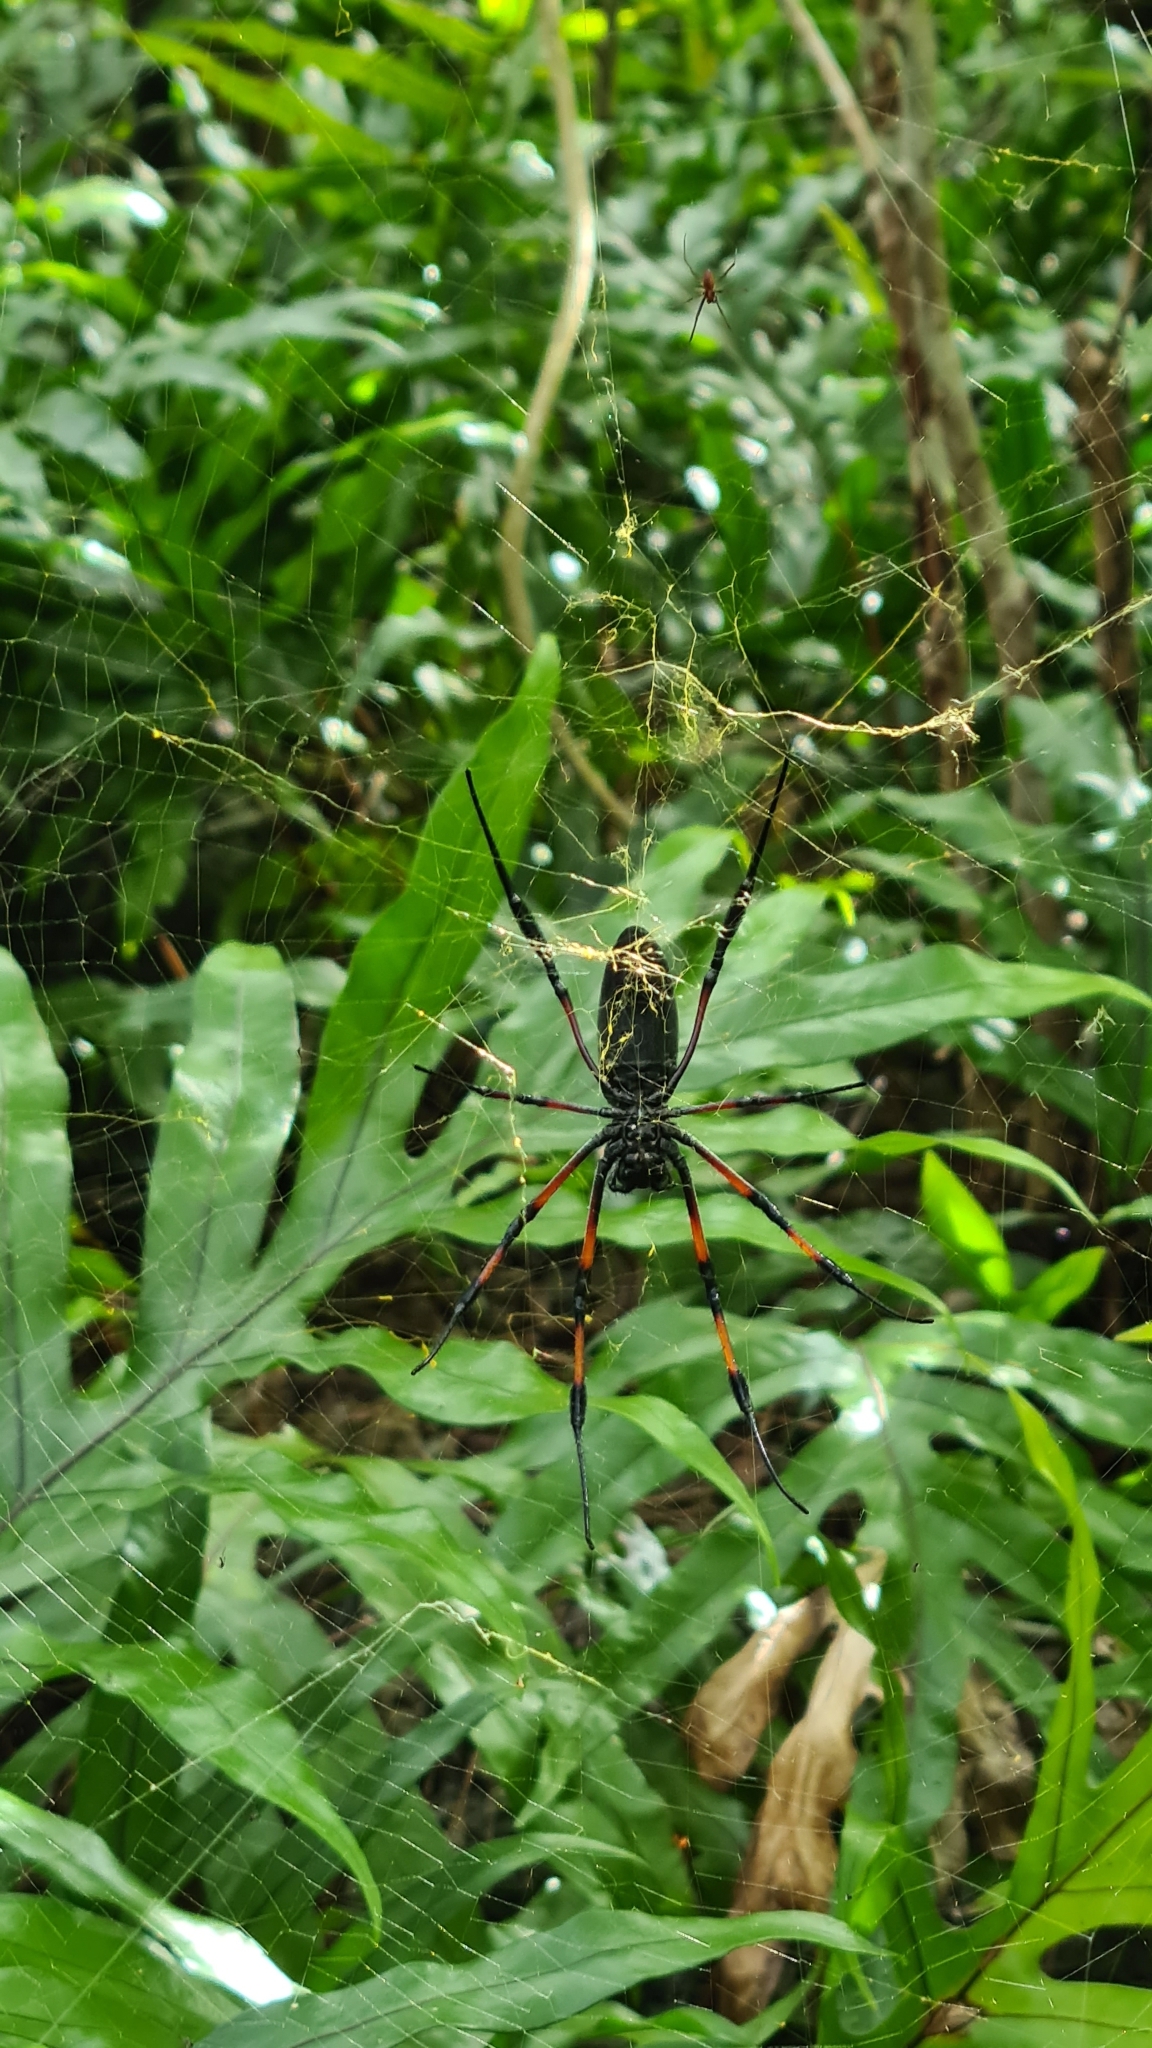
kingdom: Animalia
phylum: Arthropoda
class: Arachnida
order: Araneae
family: Araneidae
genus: Trichonephila
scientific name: Trichonephila inaurata
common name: Red-legged golden orb weaver
